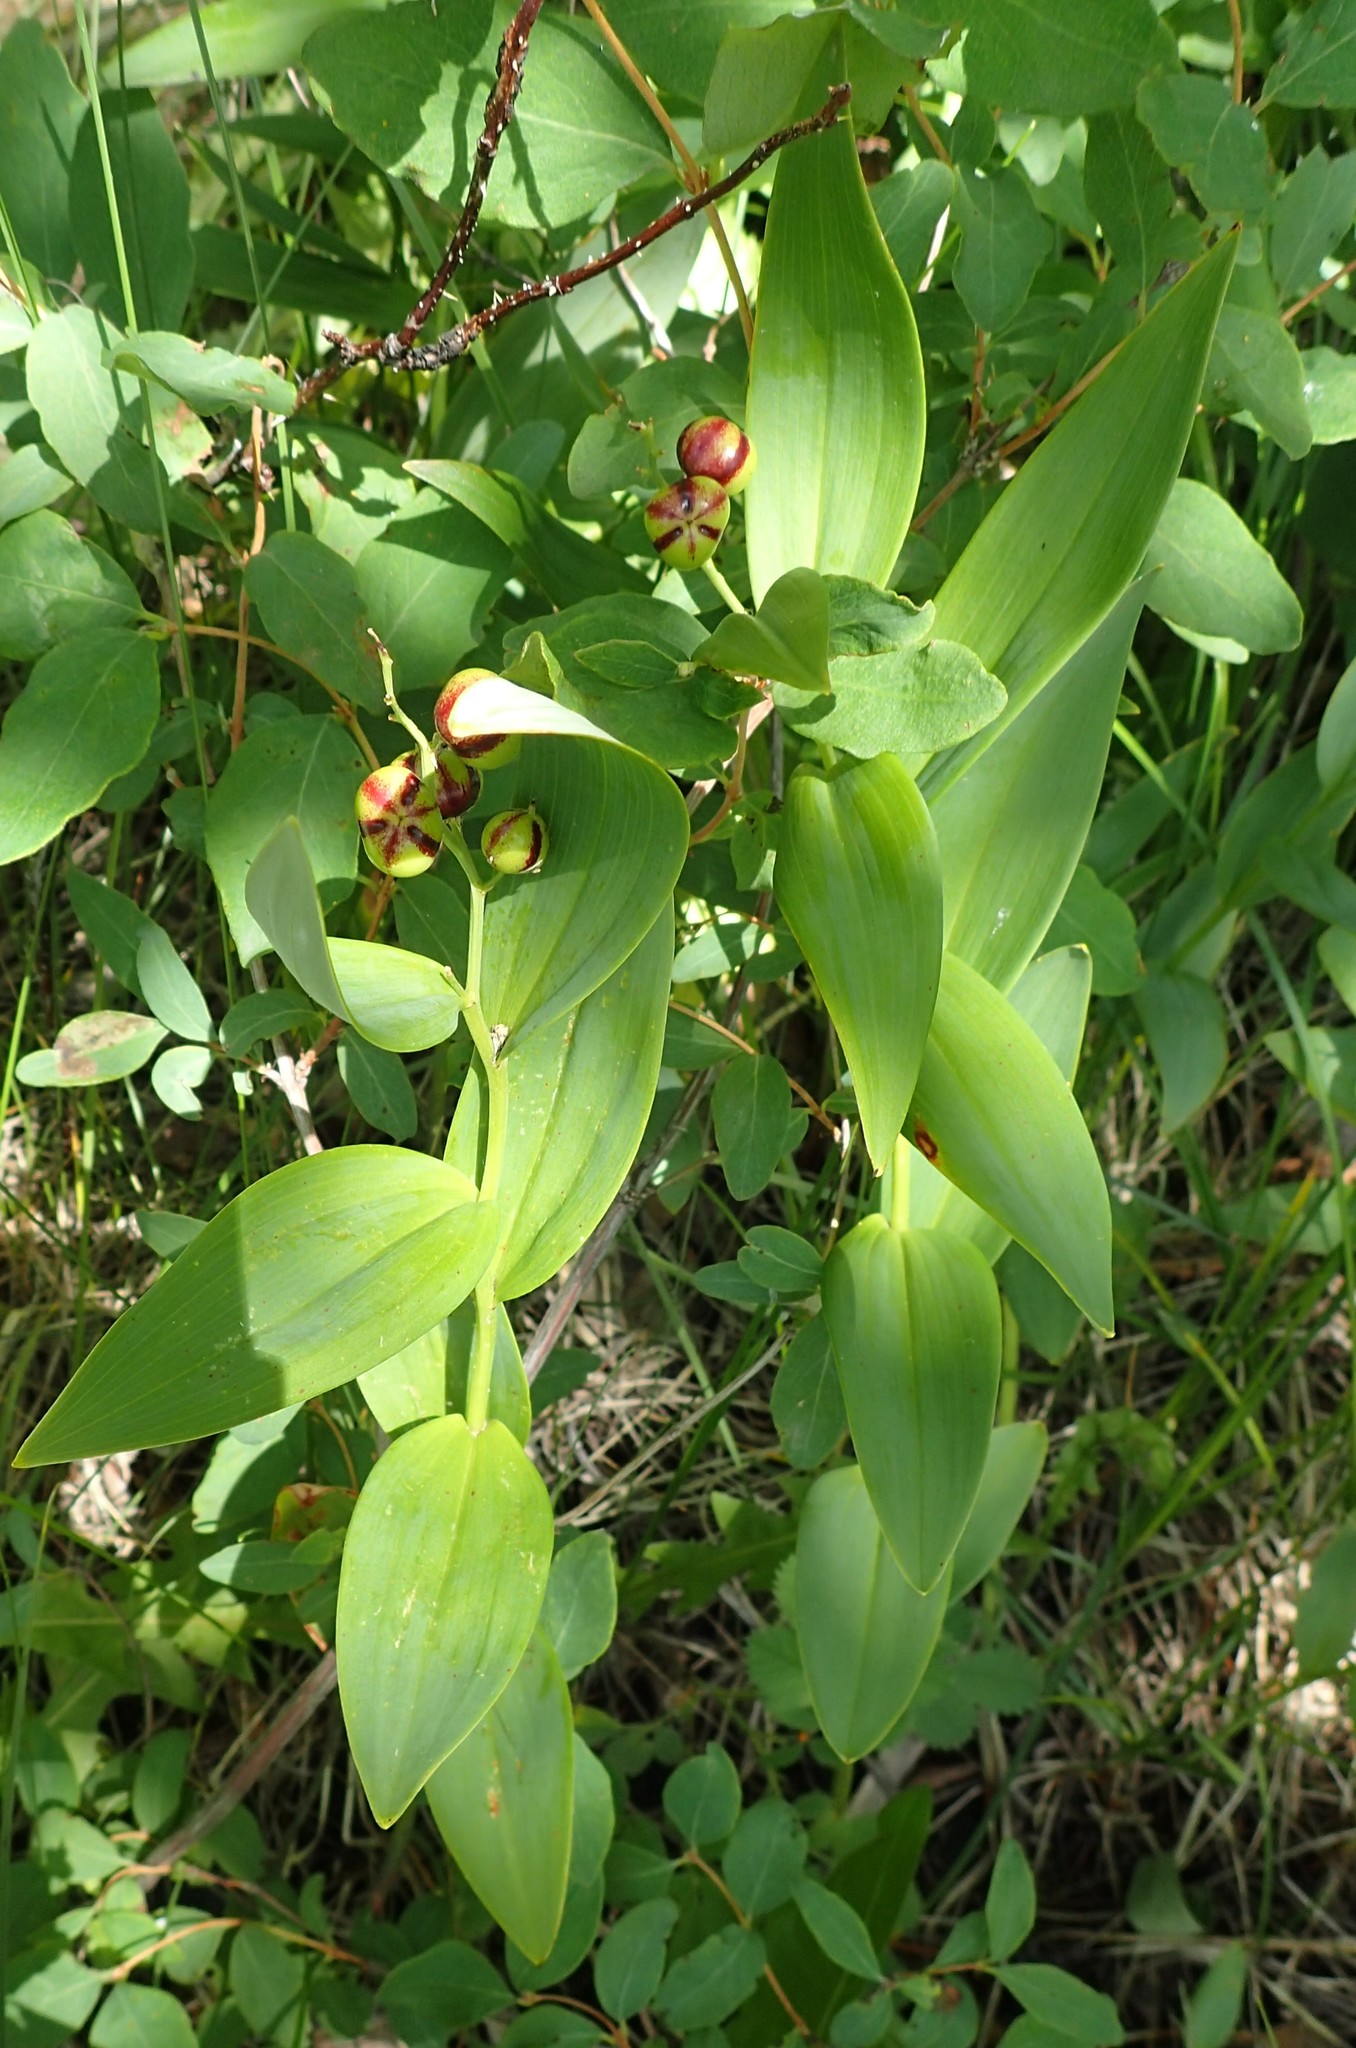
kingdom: Plantae
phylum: Tracheophyta
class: Liliopsida
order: Asparagales
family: Asparagaceae
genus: Maianthemum
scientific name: Maianthemum stellatum
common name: Little false solomon's seal
